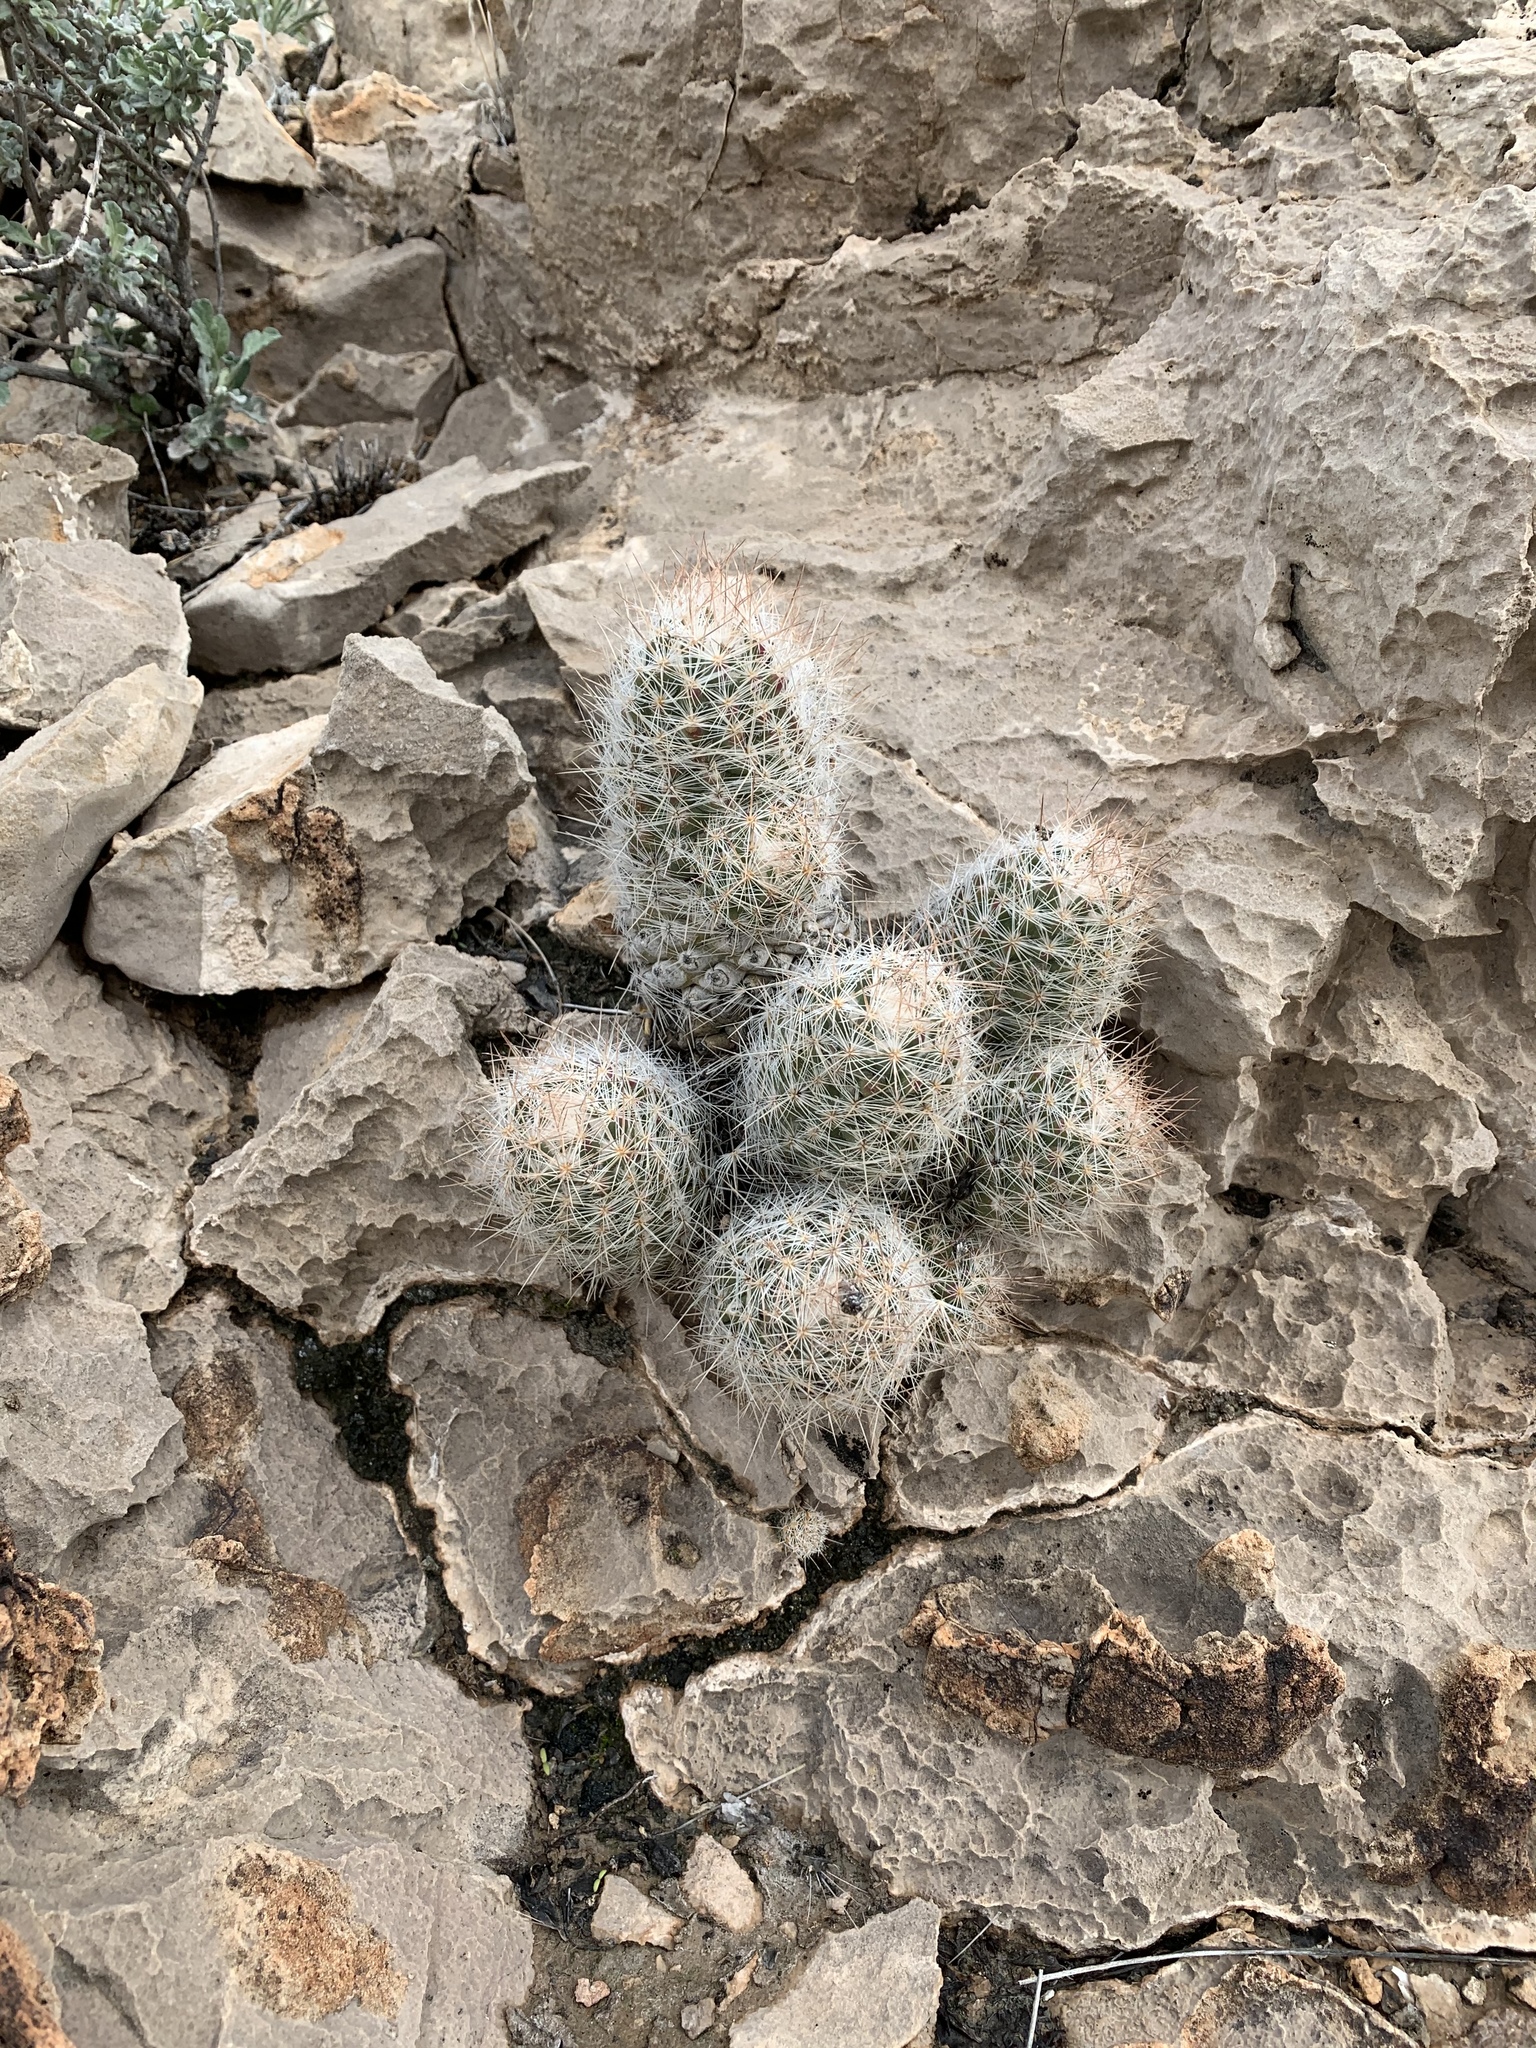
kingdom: Plantae
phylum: Tracheophyta
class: Magnoliopsida
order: Caryophyllales
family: Cactaceae
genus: Pelecyphora
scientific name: Pelecyphora tuberculosa
